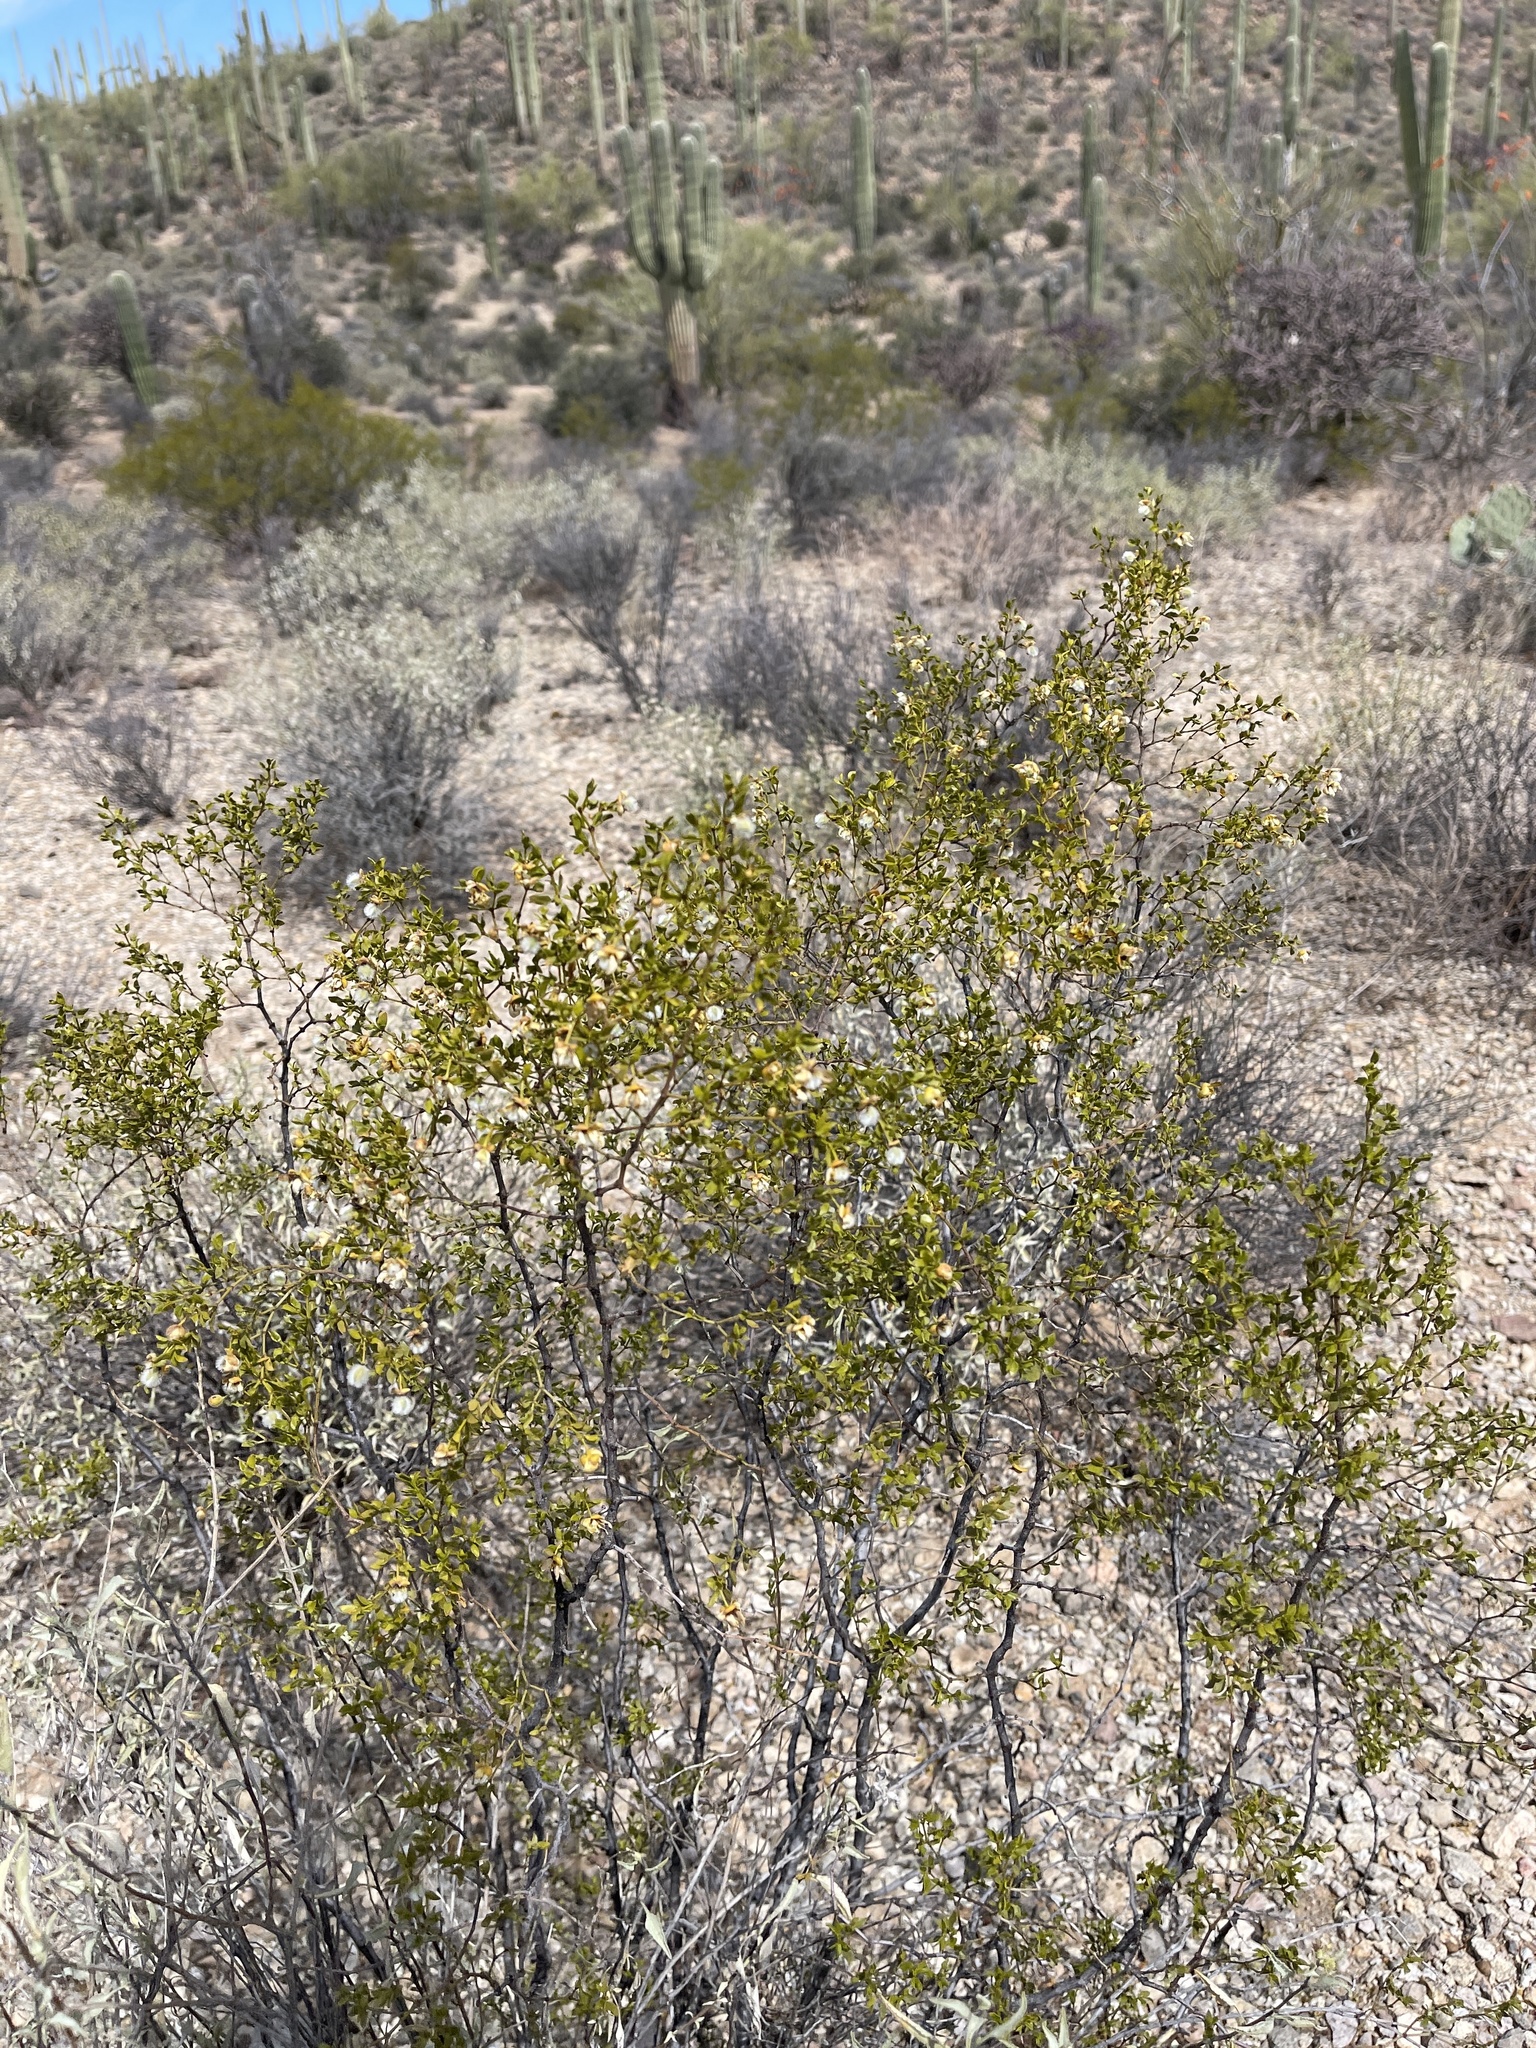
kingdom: Plantae
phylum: Tracheophyta
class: Magnoliopsida
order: Zygophyllales
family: Zygophyllaceae
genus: Larrea
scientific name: Larrea tridentata
